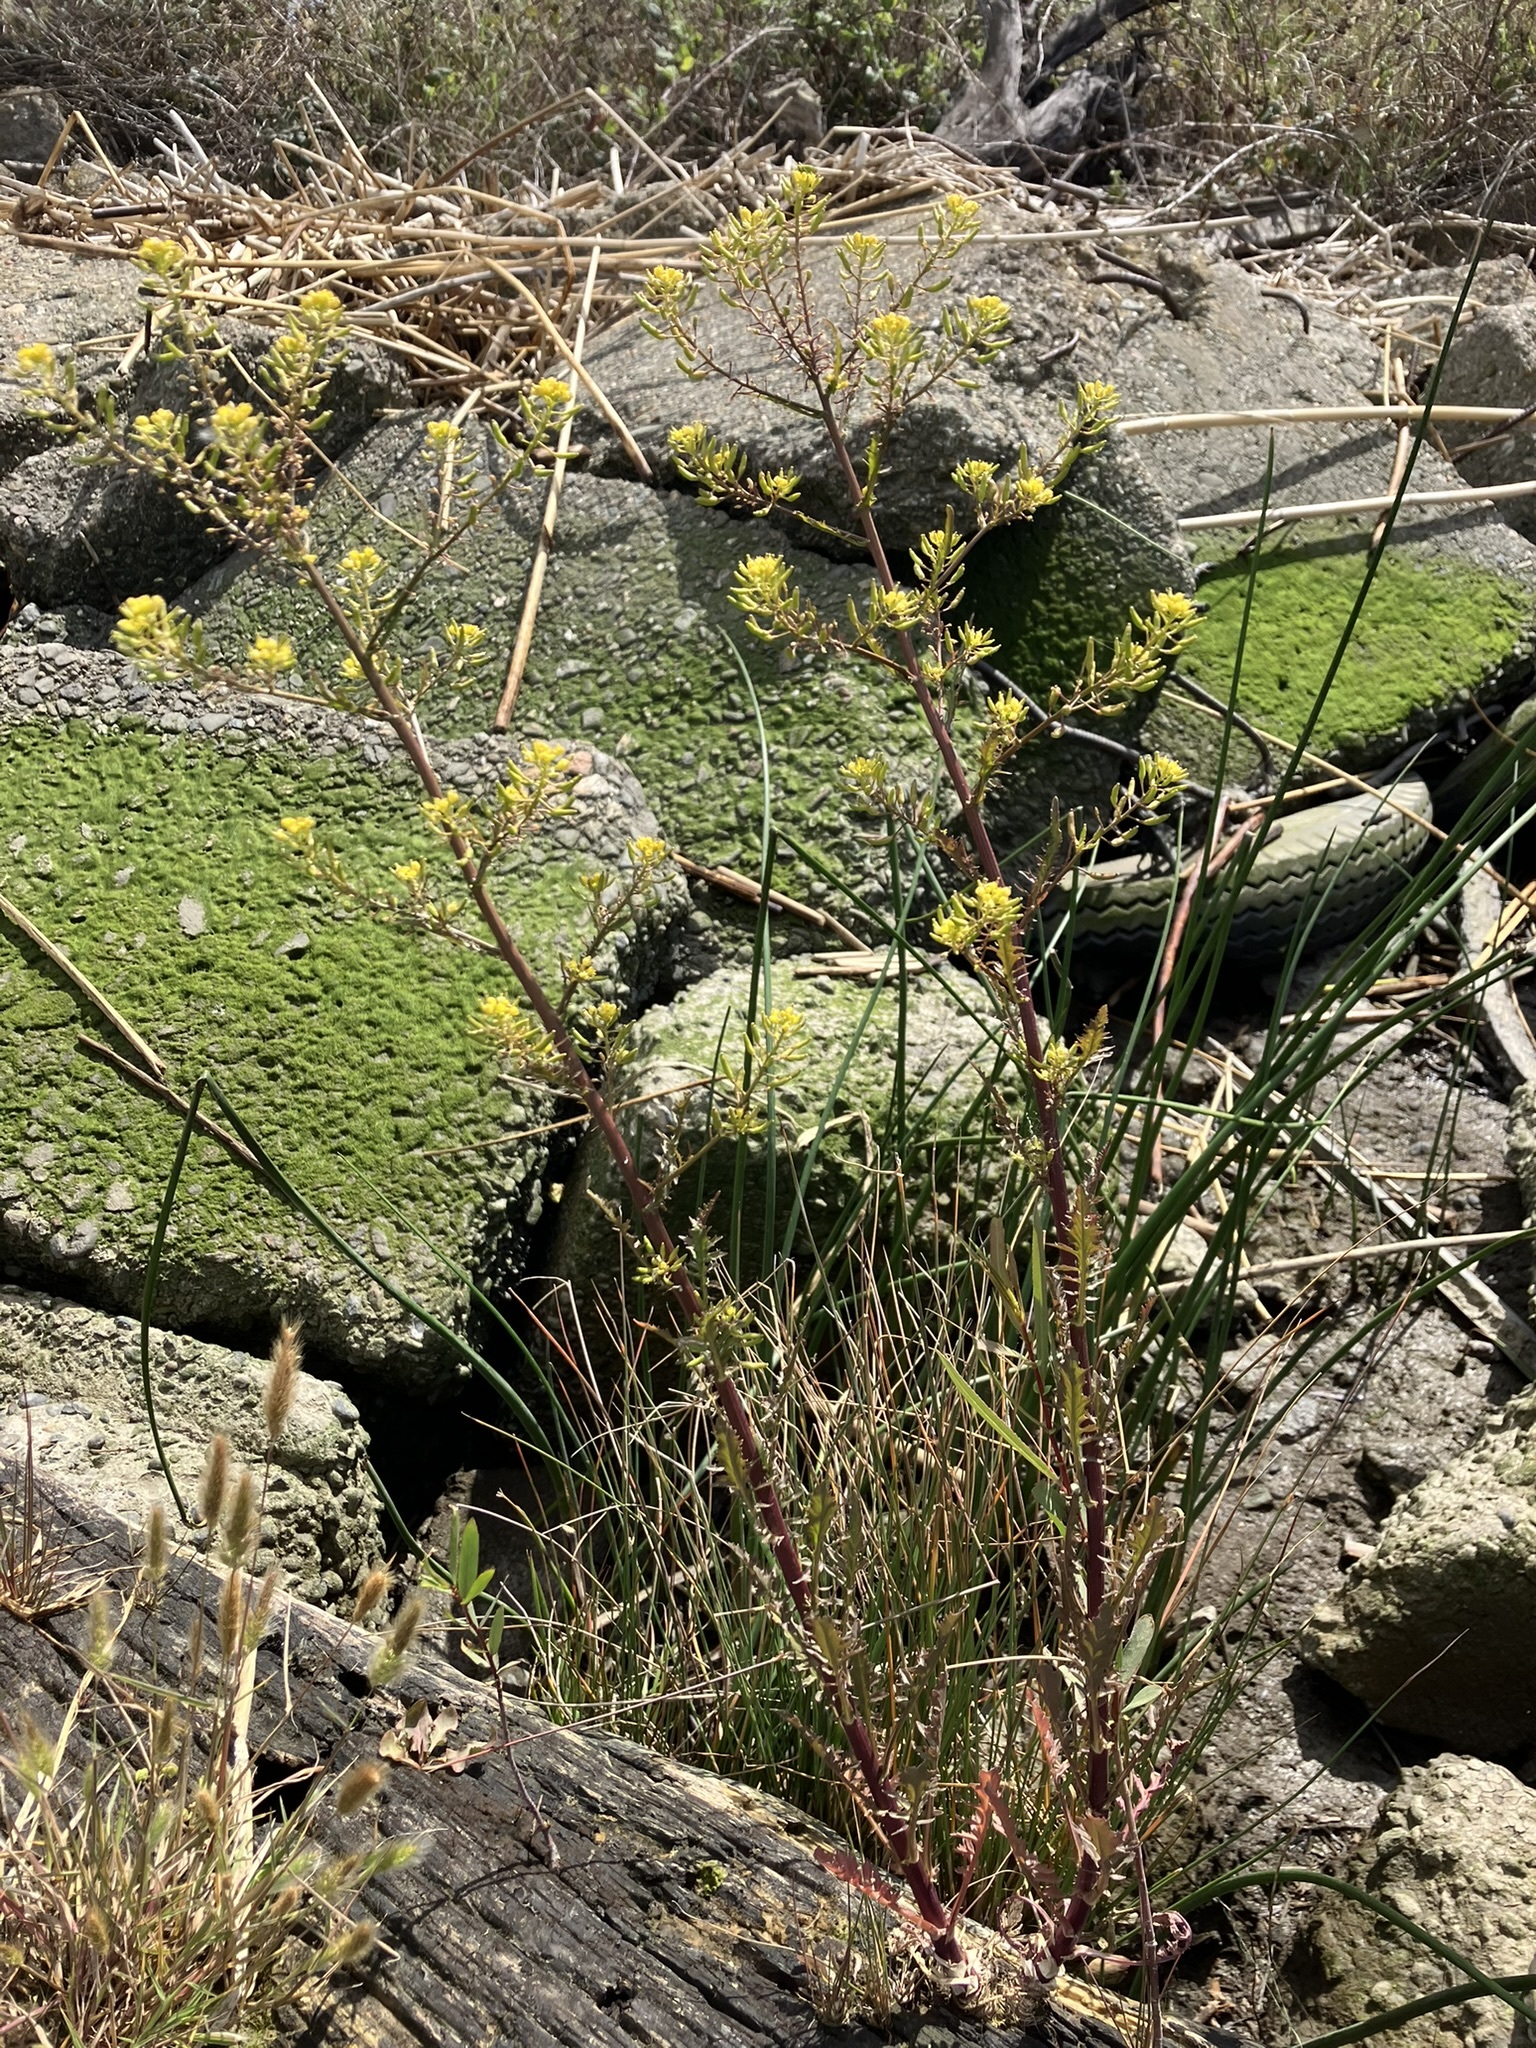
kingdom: Plantae
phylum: Tracheophyta
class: Magnoliopsida
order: Brassicales
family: Brassicaceae
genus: Rorippa
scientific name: Rorippa curvisiliqua
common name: Curve-pod yellow cress
